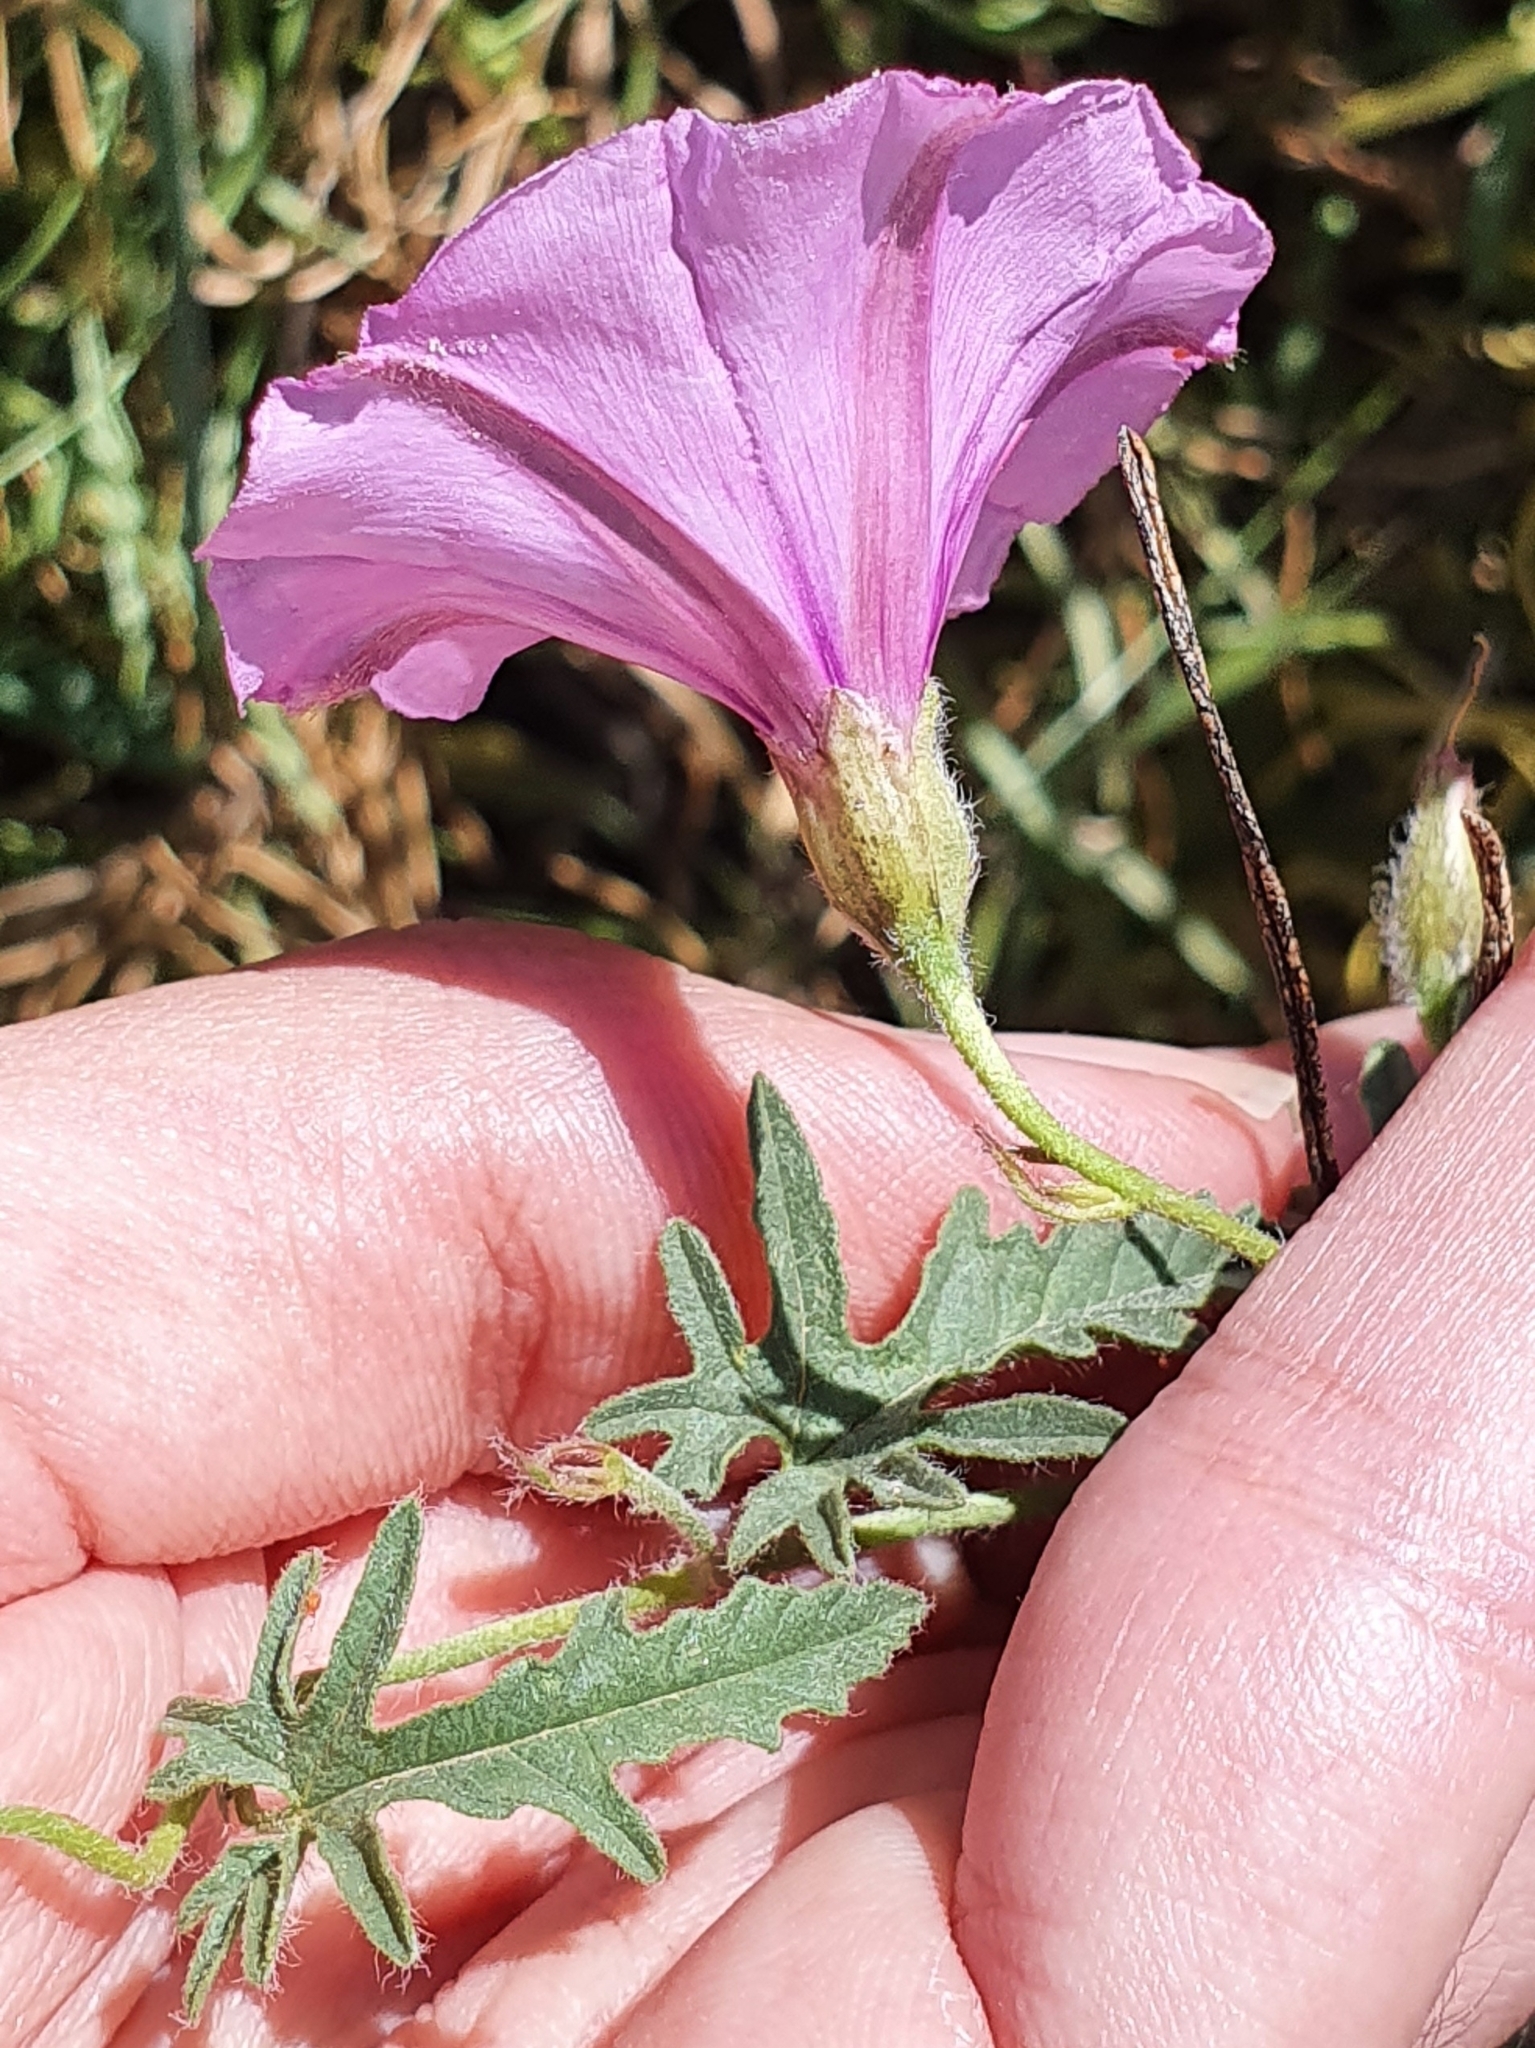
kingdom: Plantae
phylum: Tracheophyta
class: Magnoliopsida
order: Solanales
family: Convolvulaceae
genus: Convolvulus
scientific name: Convolvulus althaeoides
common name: Mallow bindweed
